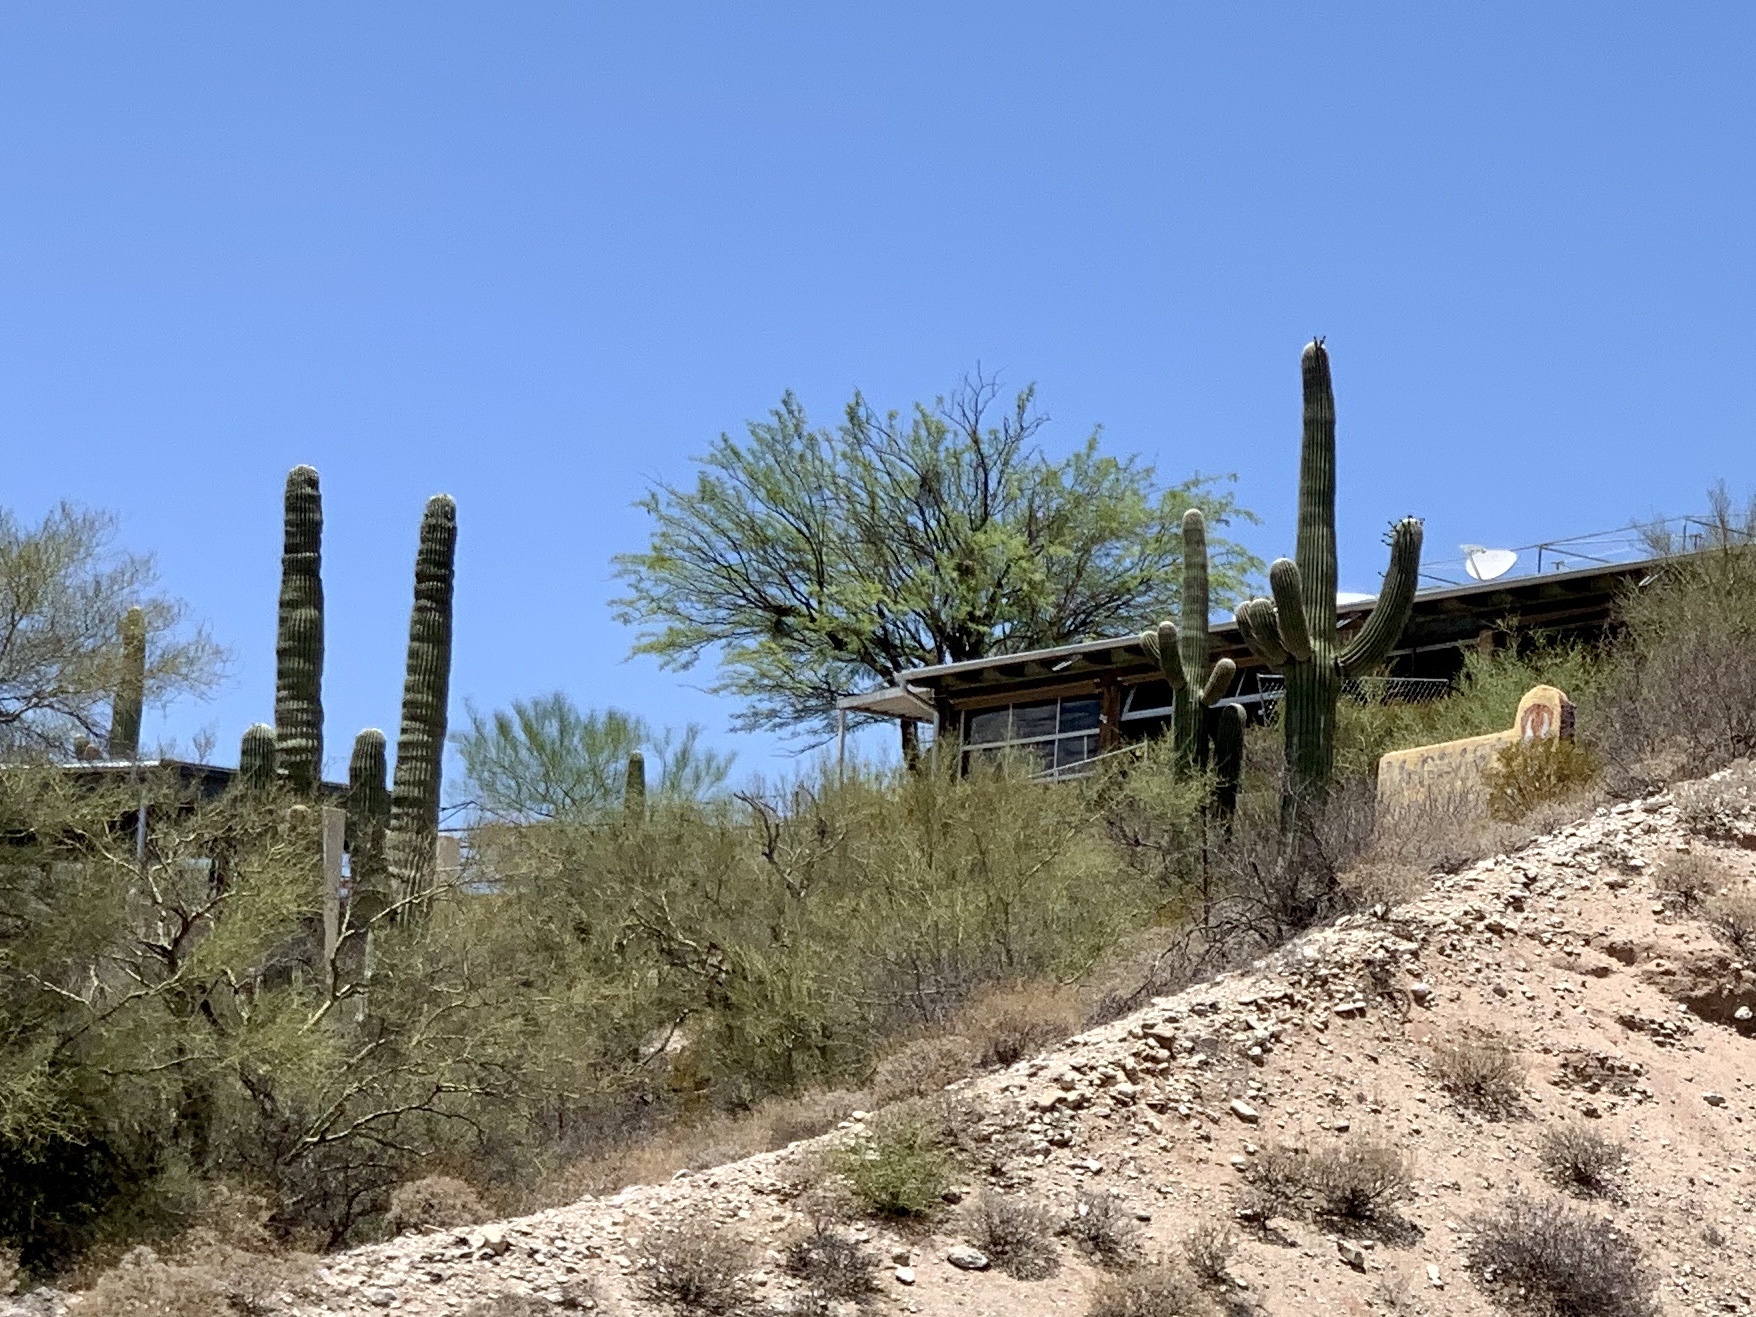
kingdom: Plantae
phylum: Tracheophyta
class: Magnoliopsida
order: Caryophyllales
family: Cactaceae
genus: Carnegiea
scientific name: Carnegiea gigantea
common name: Saguaro
